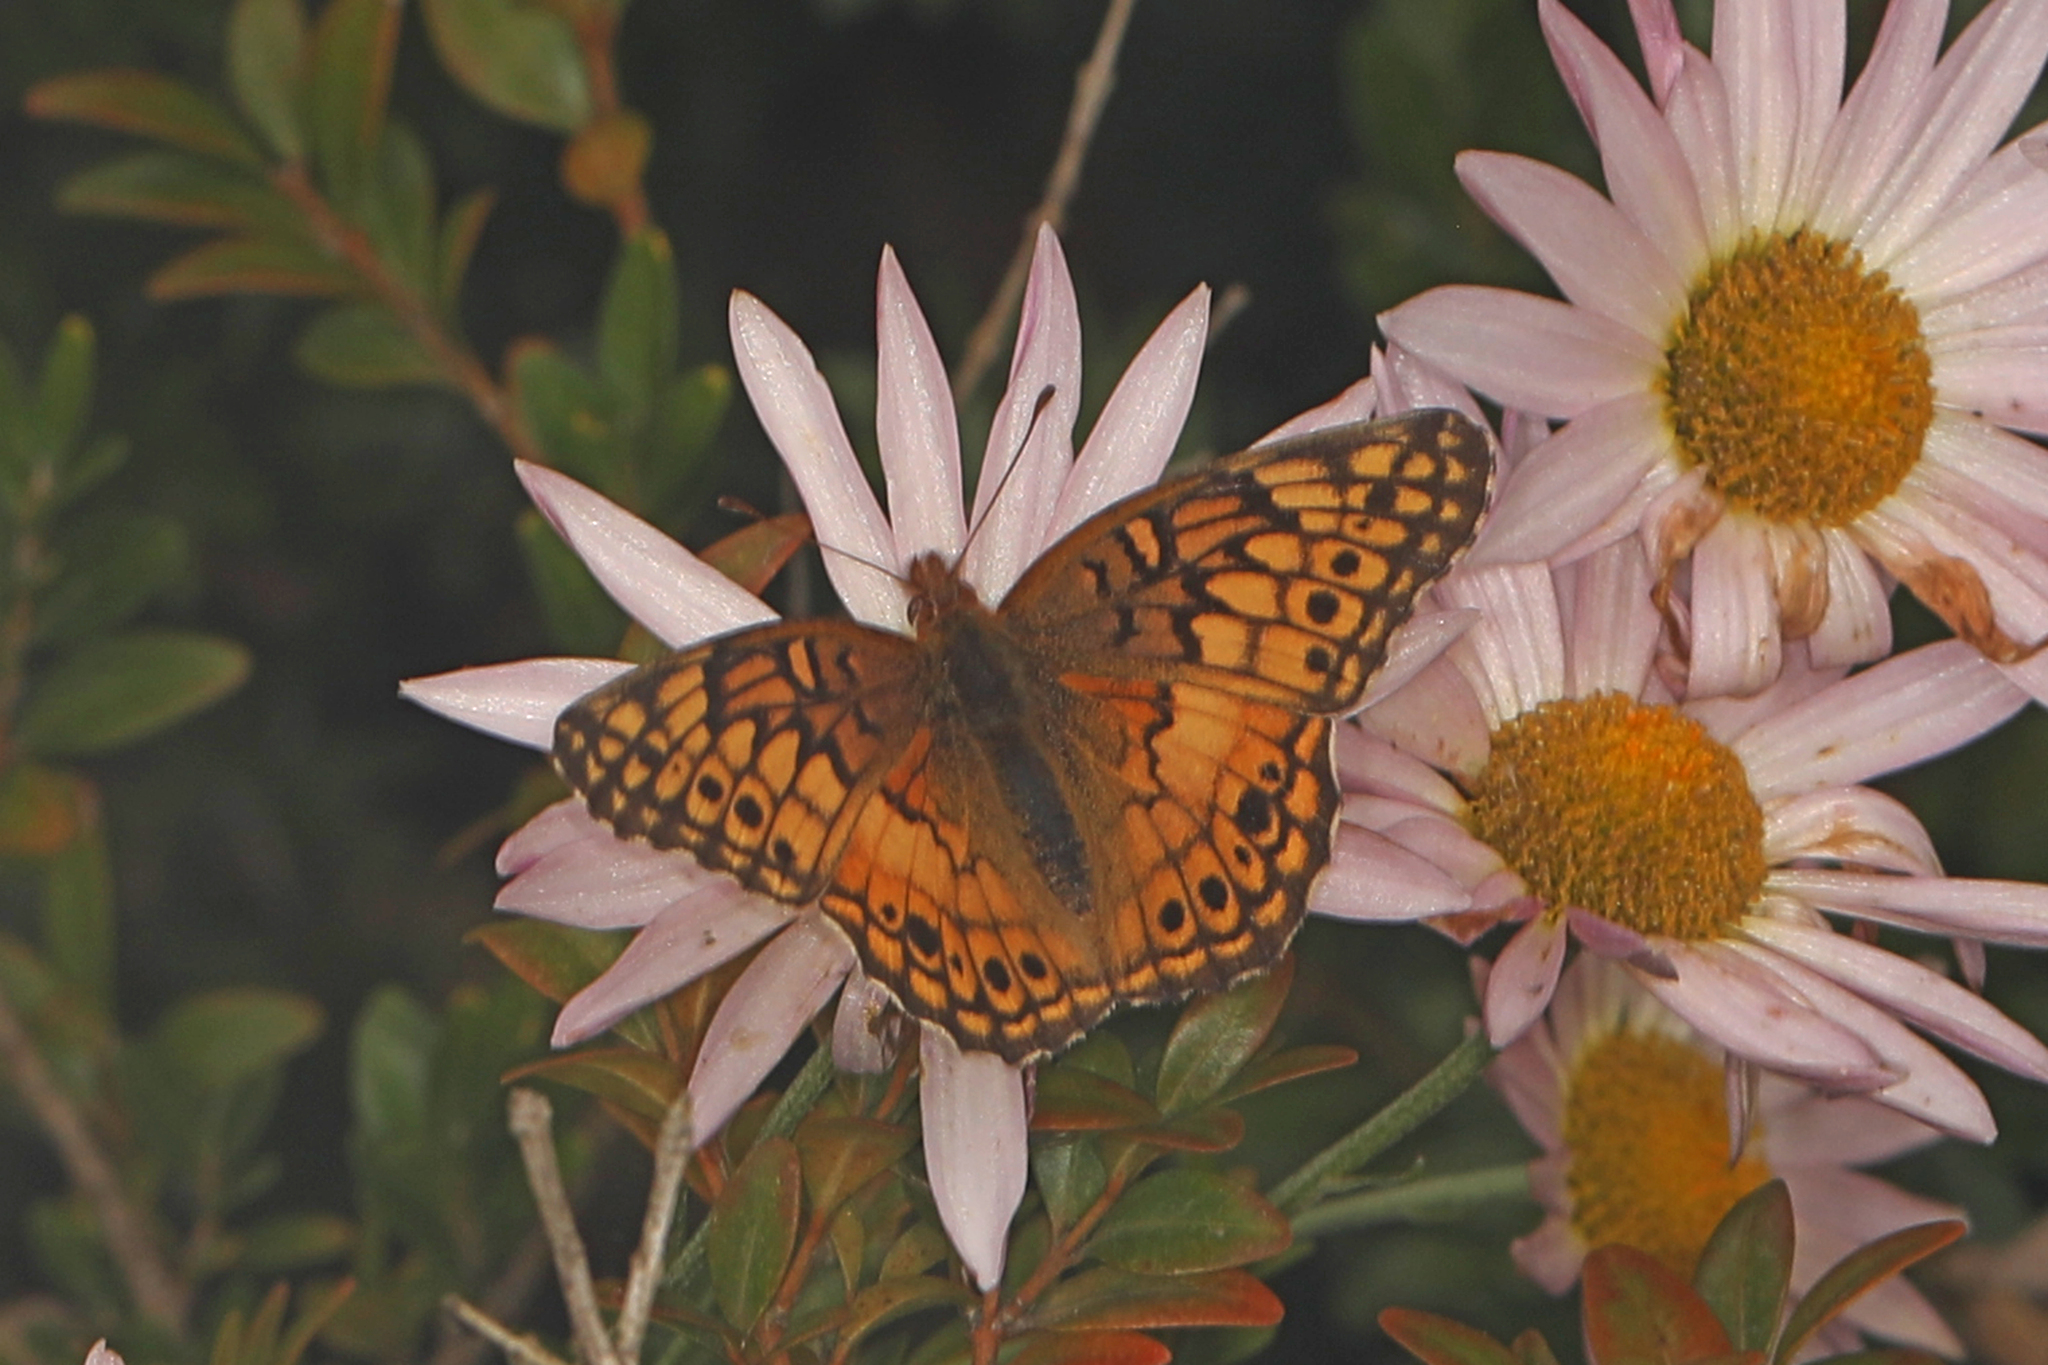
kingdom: Animalia
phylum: Arthropoda
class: Insecta
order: Lepidoptera
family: Nymphalidae
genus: Euptoieta
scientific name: Euptoieta claudia
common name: Variegated fritillary
